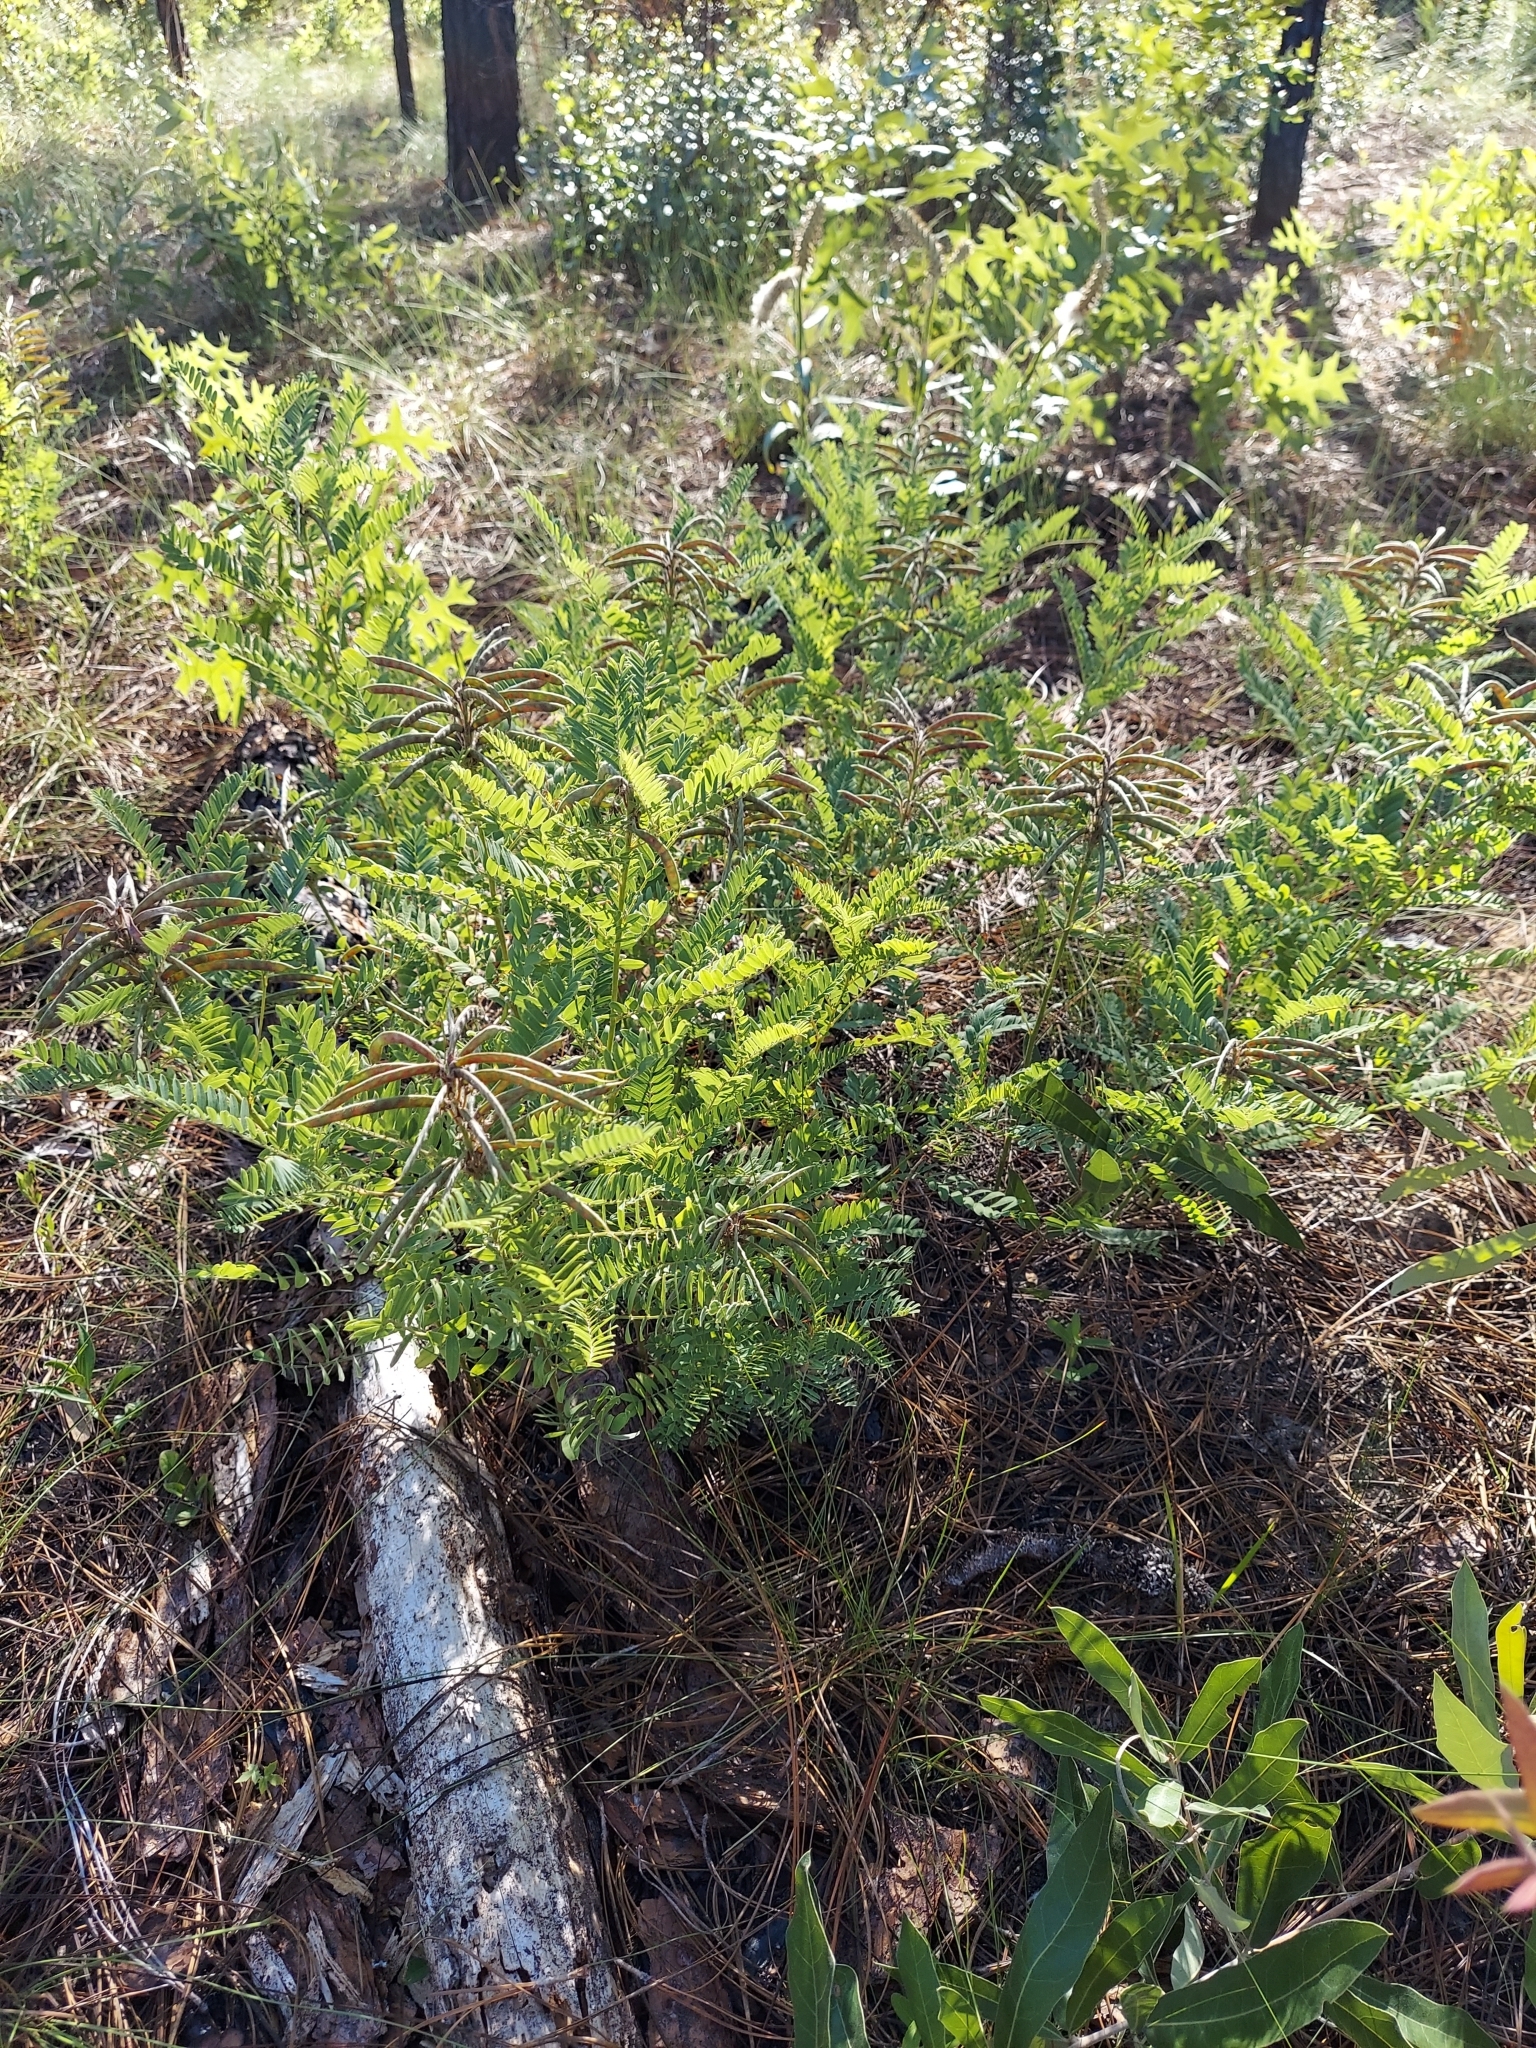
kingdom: Plantae
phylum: Tracheophyta
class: Magnoliopsida
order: Fabales
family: Fabaceae
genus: Tephrosia
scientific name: Tephrosia virginiana
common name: Rabbit-pea
